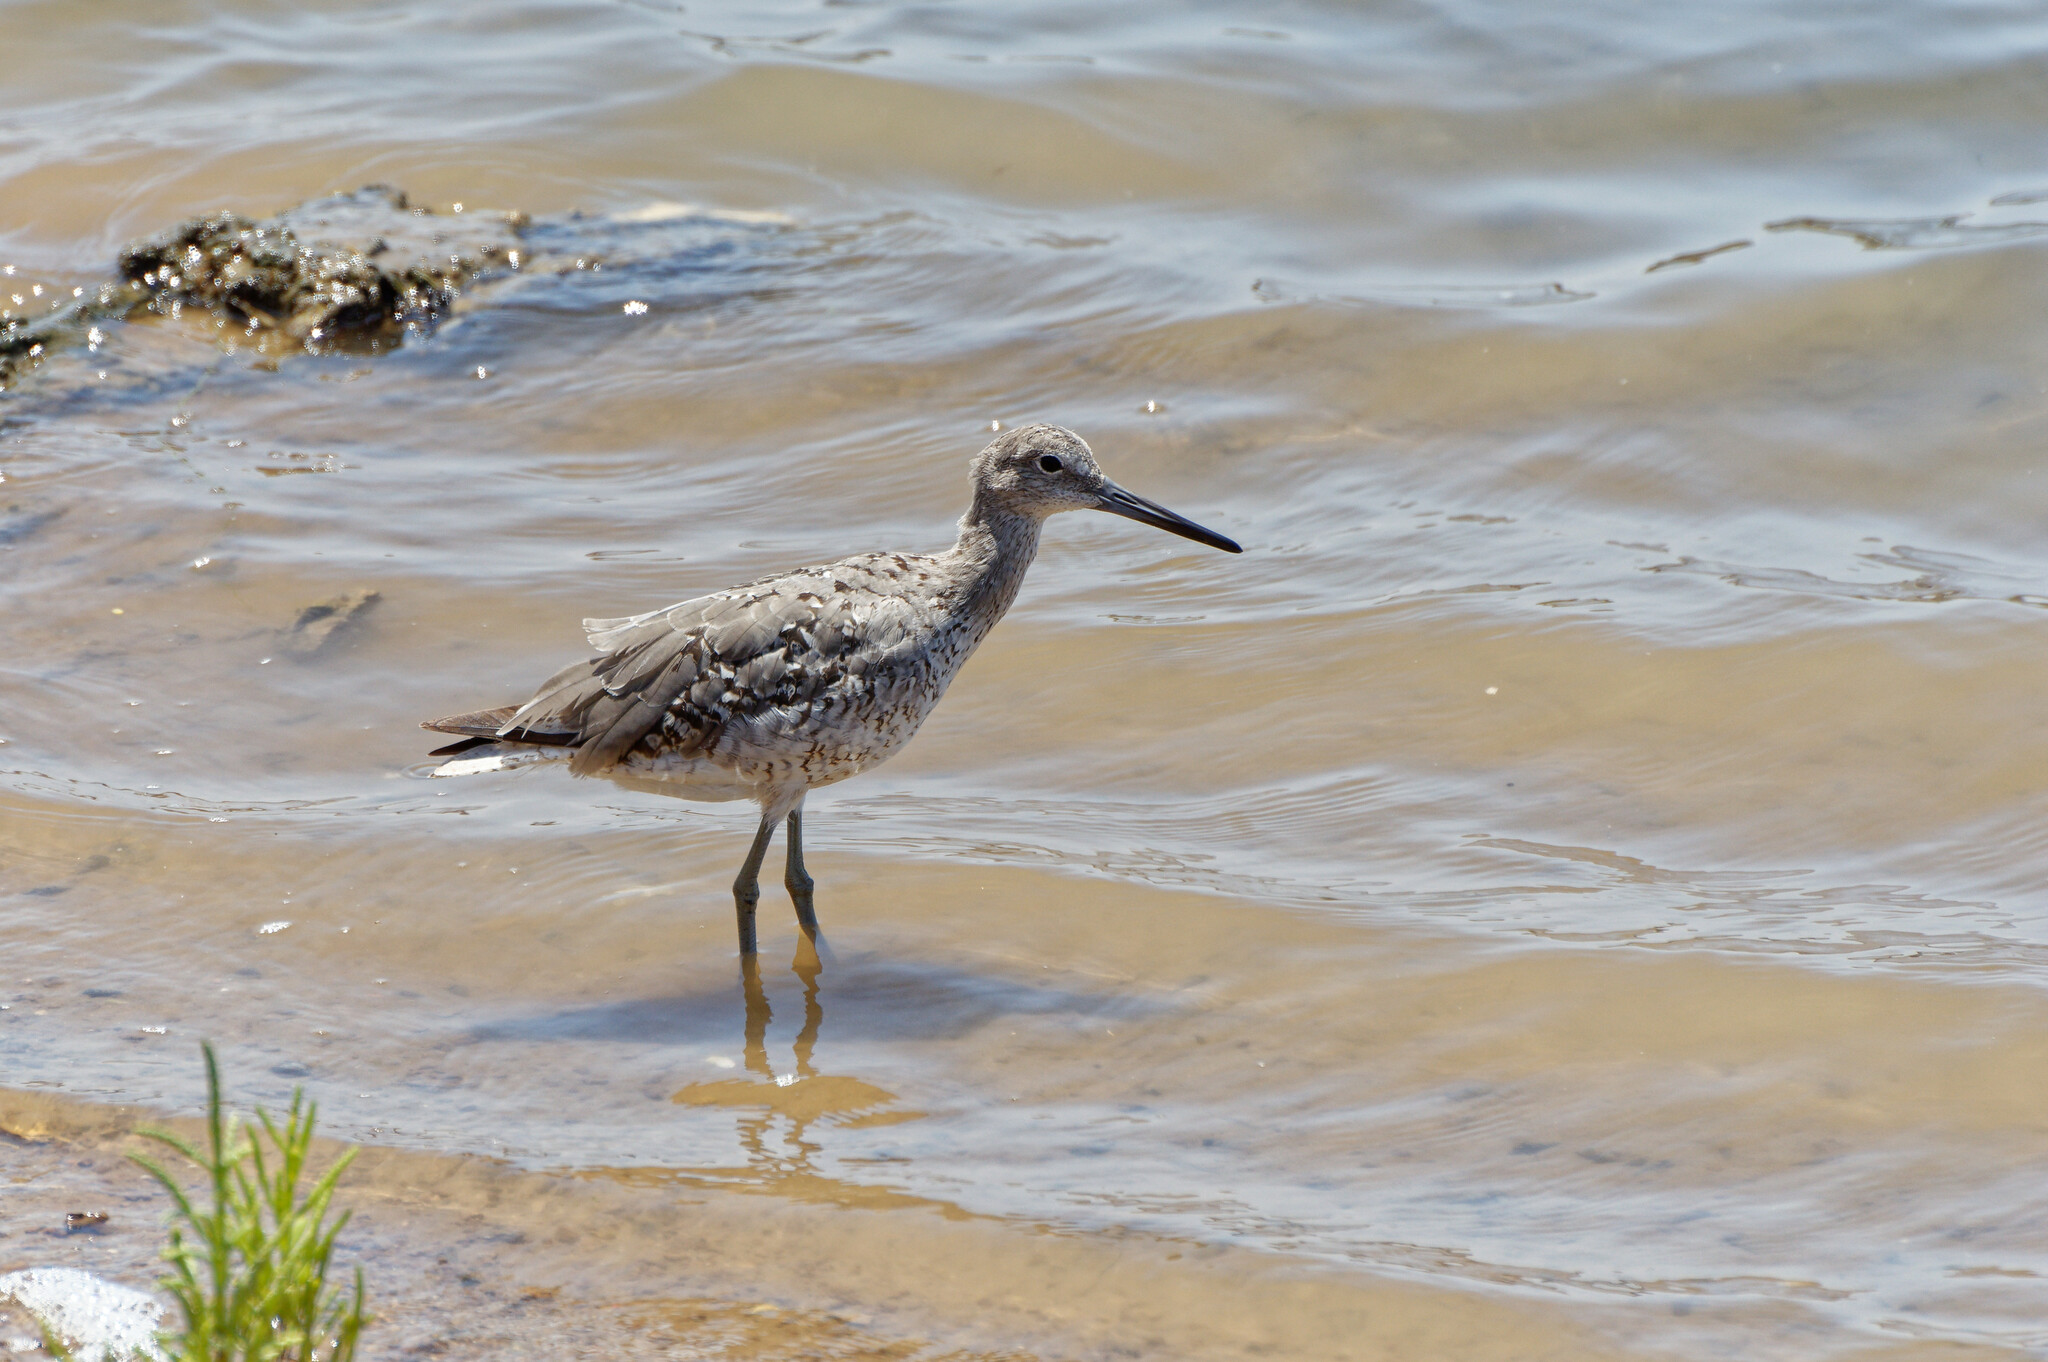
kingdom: Animalia
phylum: Chordata
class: Aves
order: Charadriiformes
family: Scolopacidae
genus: Tringa
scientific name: Tringa semipalmata
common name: Willet
